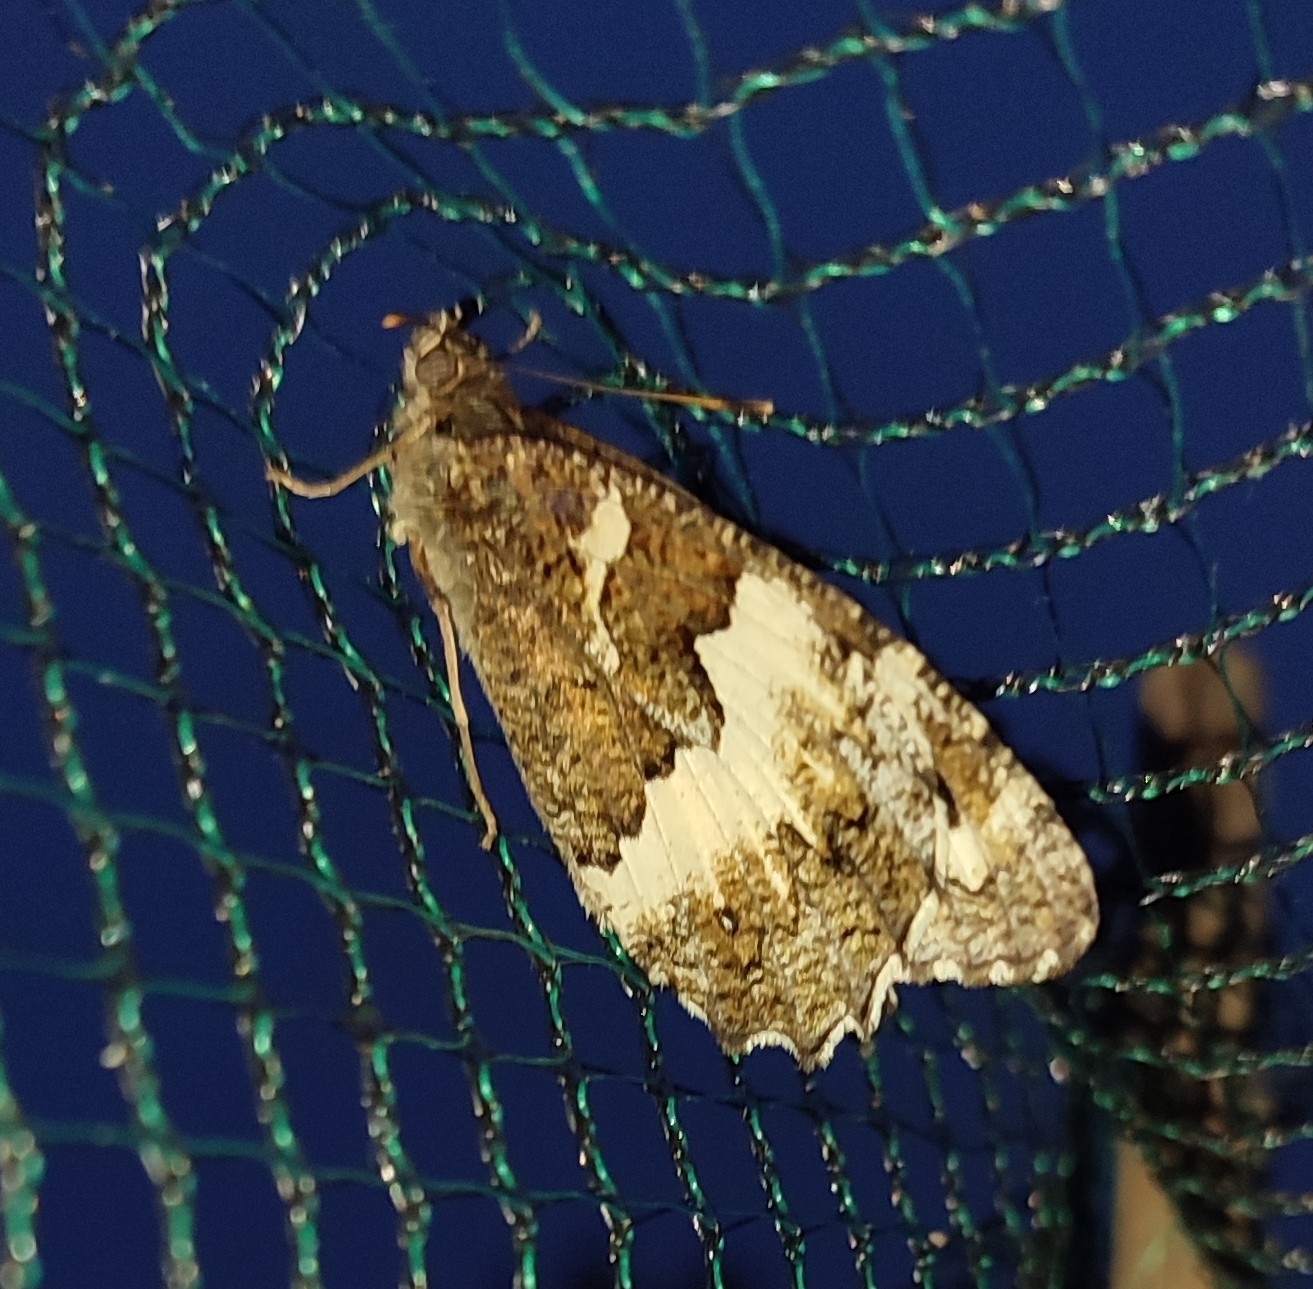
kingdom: Animalia
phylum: Arthropoda
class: Insecta
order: Lepidoptera
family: Lycaenidae
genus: Loweia
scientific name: Loweia tityrus
